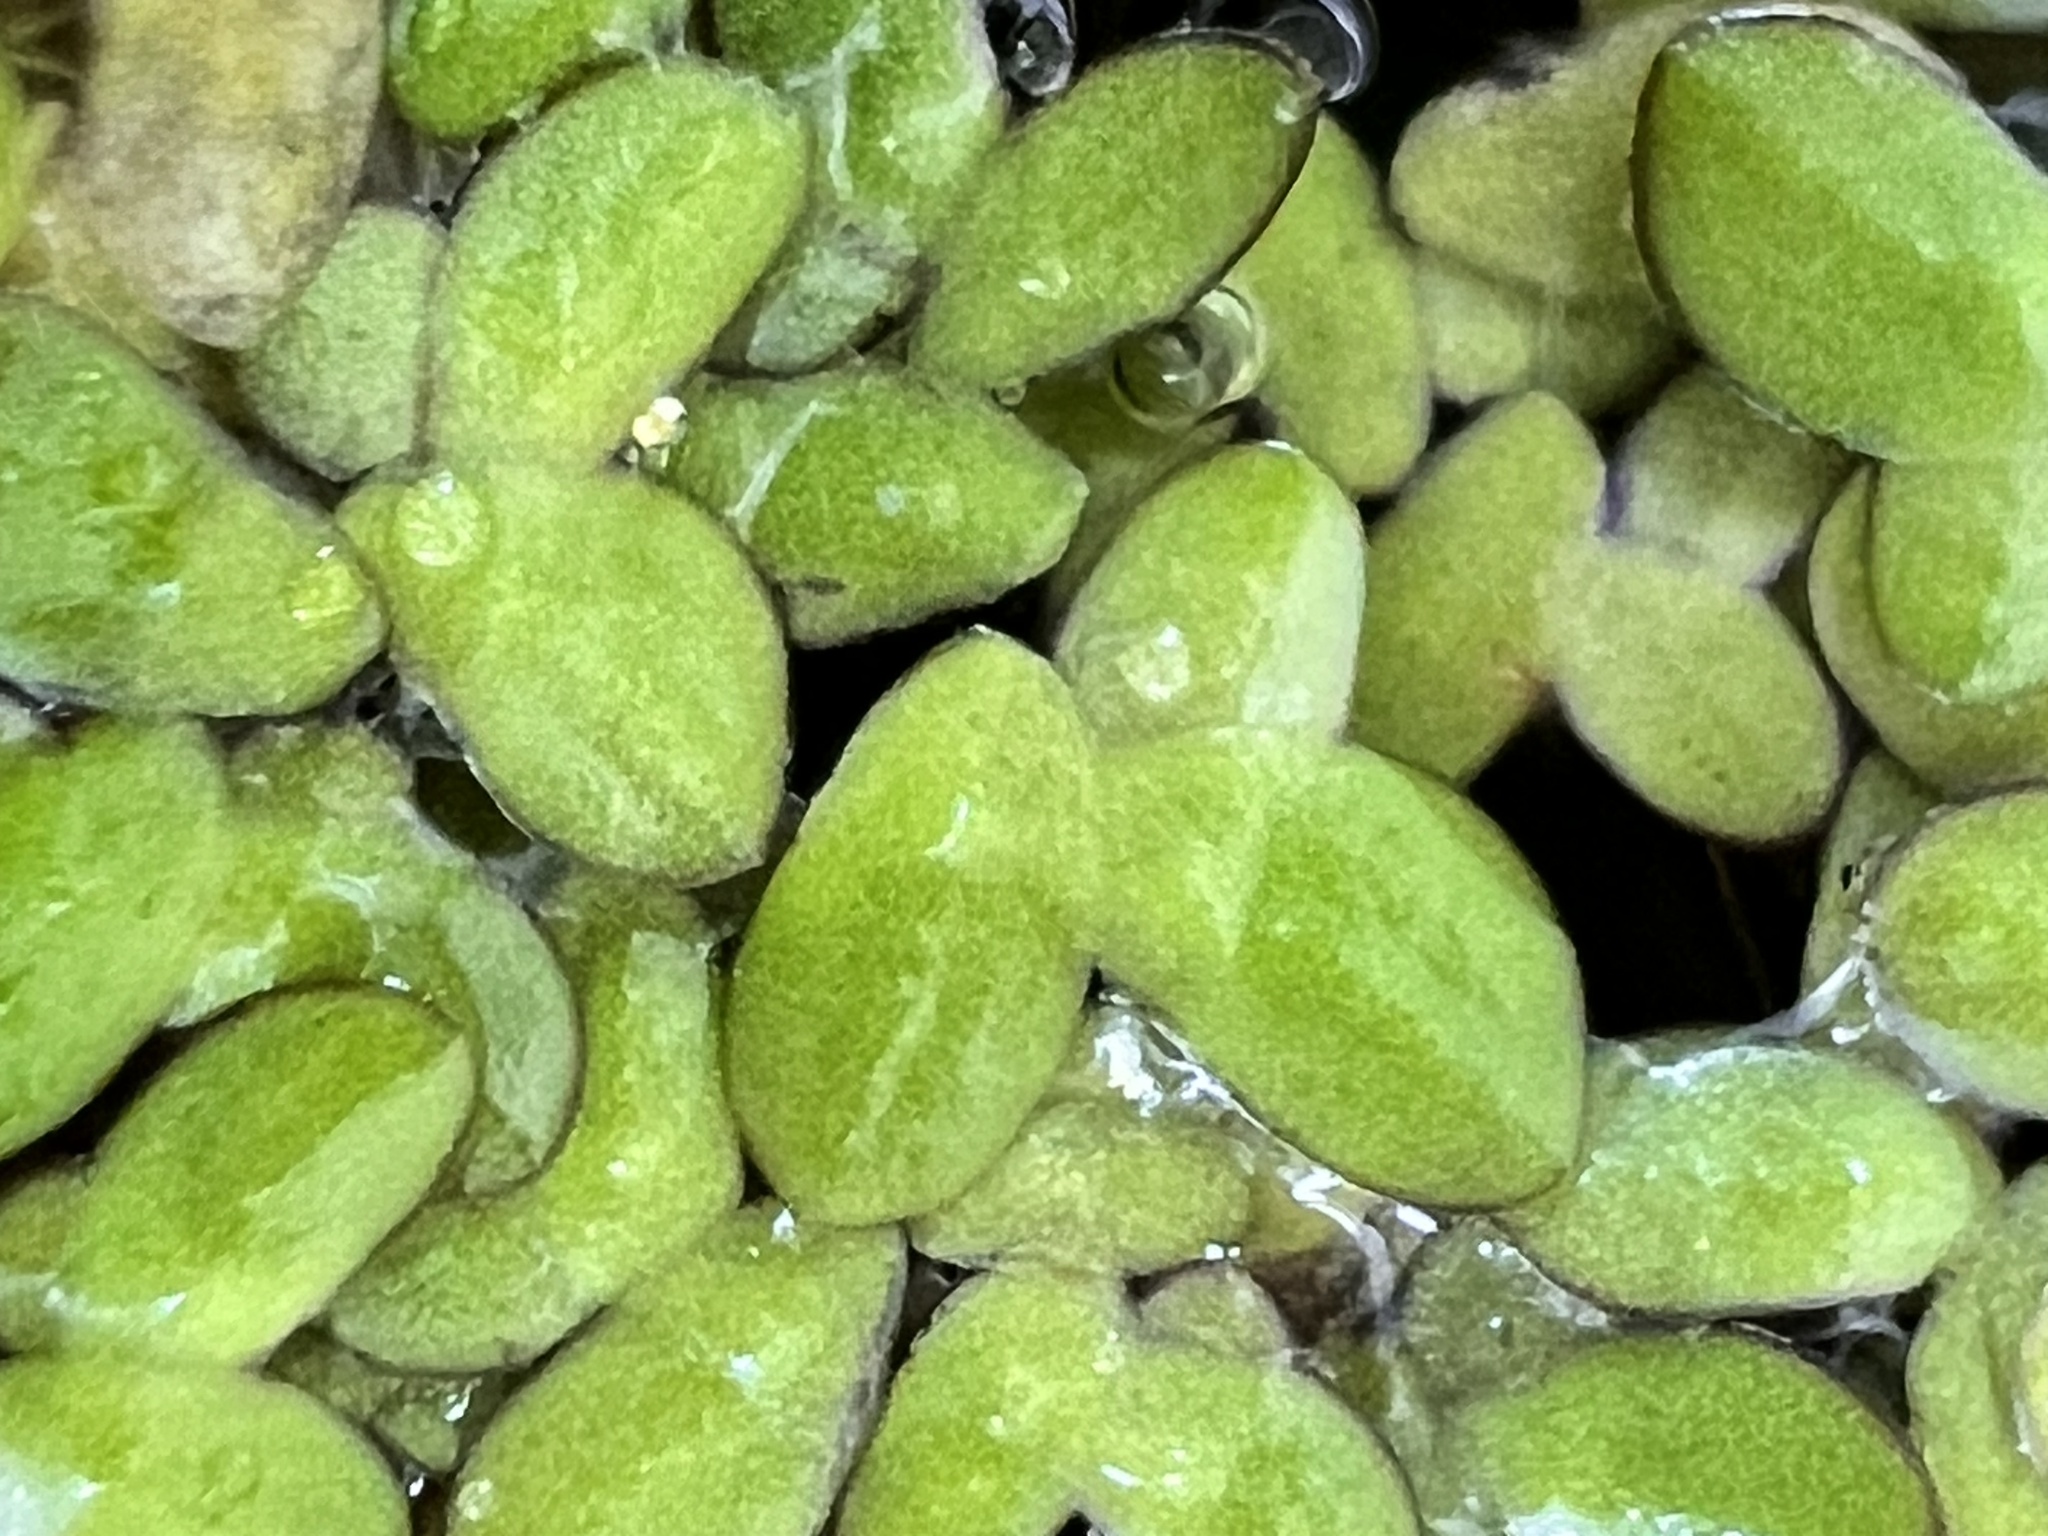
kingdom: Plantae
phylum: Tracheophyta
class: Liliopsida
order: Alismatales
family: Araceae
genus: Spirodela
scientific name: Spirodela punctata
